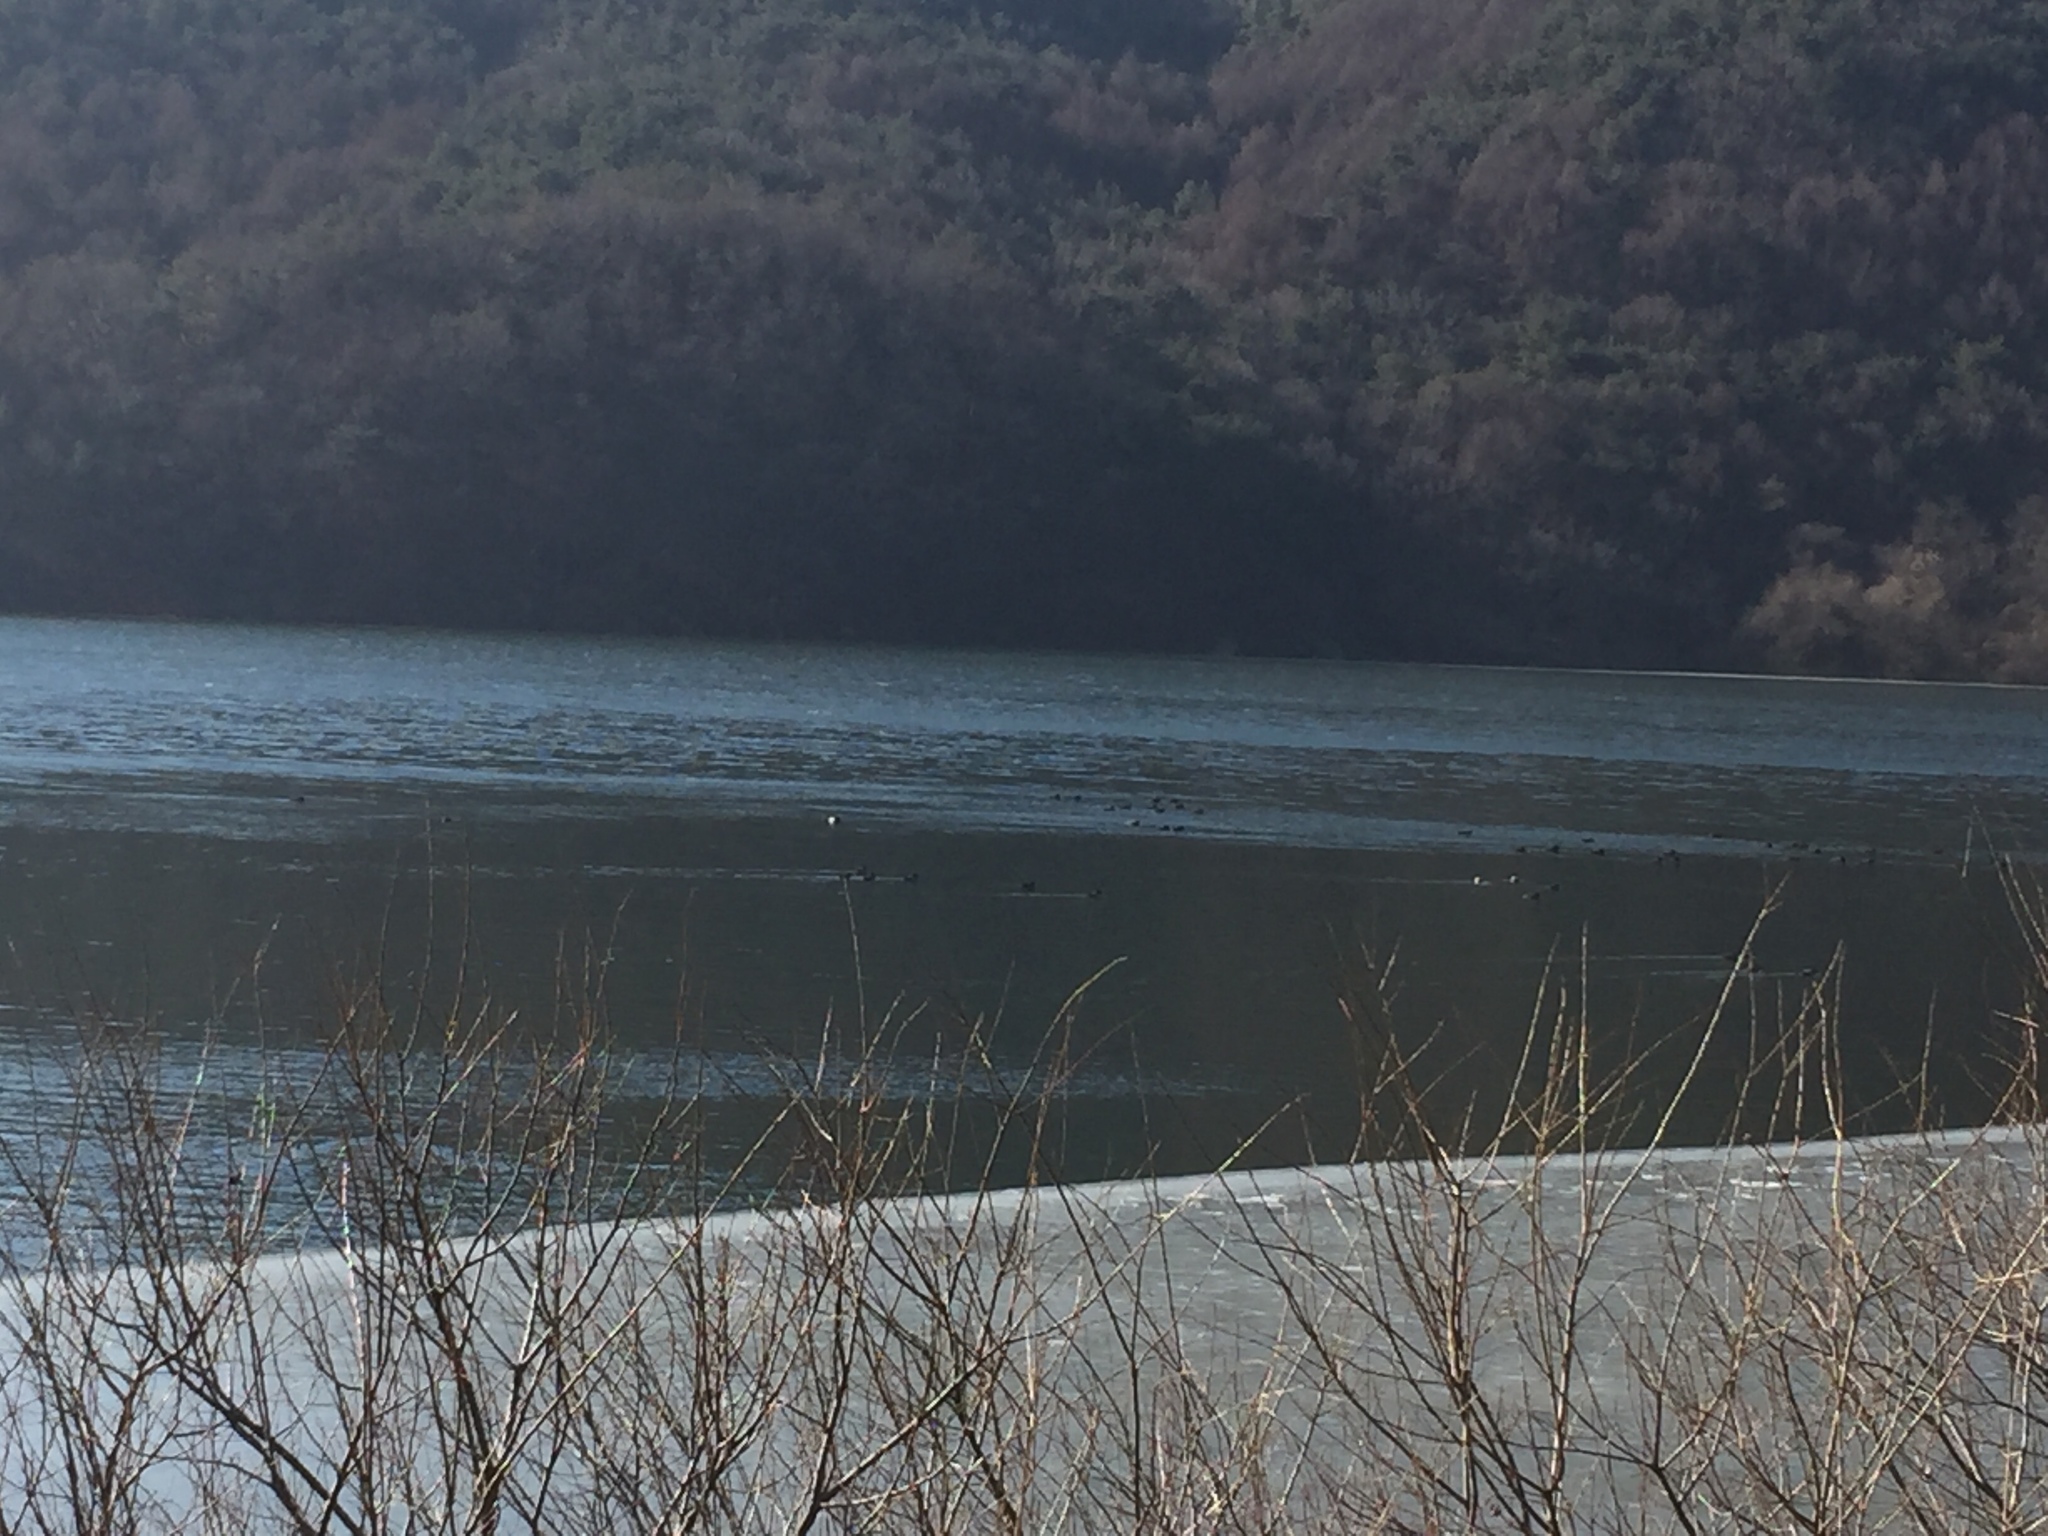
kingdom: Animalia
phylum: Chordata
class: Aves
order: Anseriformes
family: Anatidae
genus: Anas
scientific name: Anas platyrhynchos
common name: Mallard
